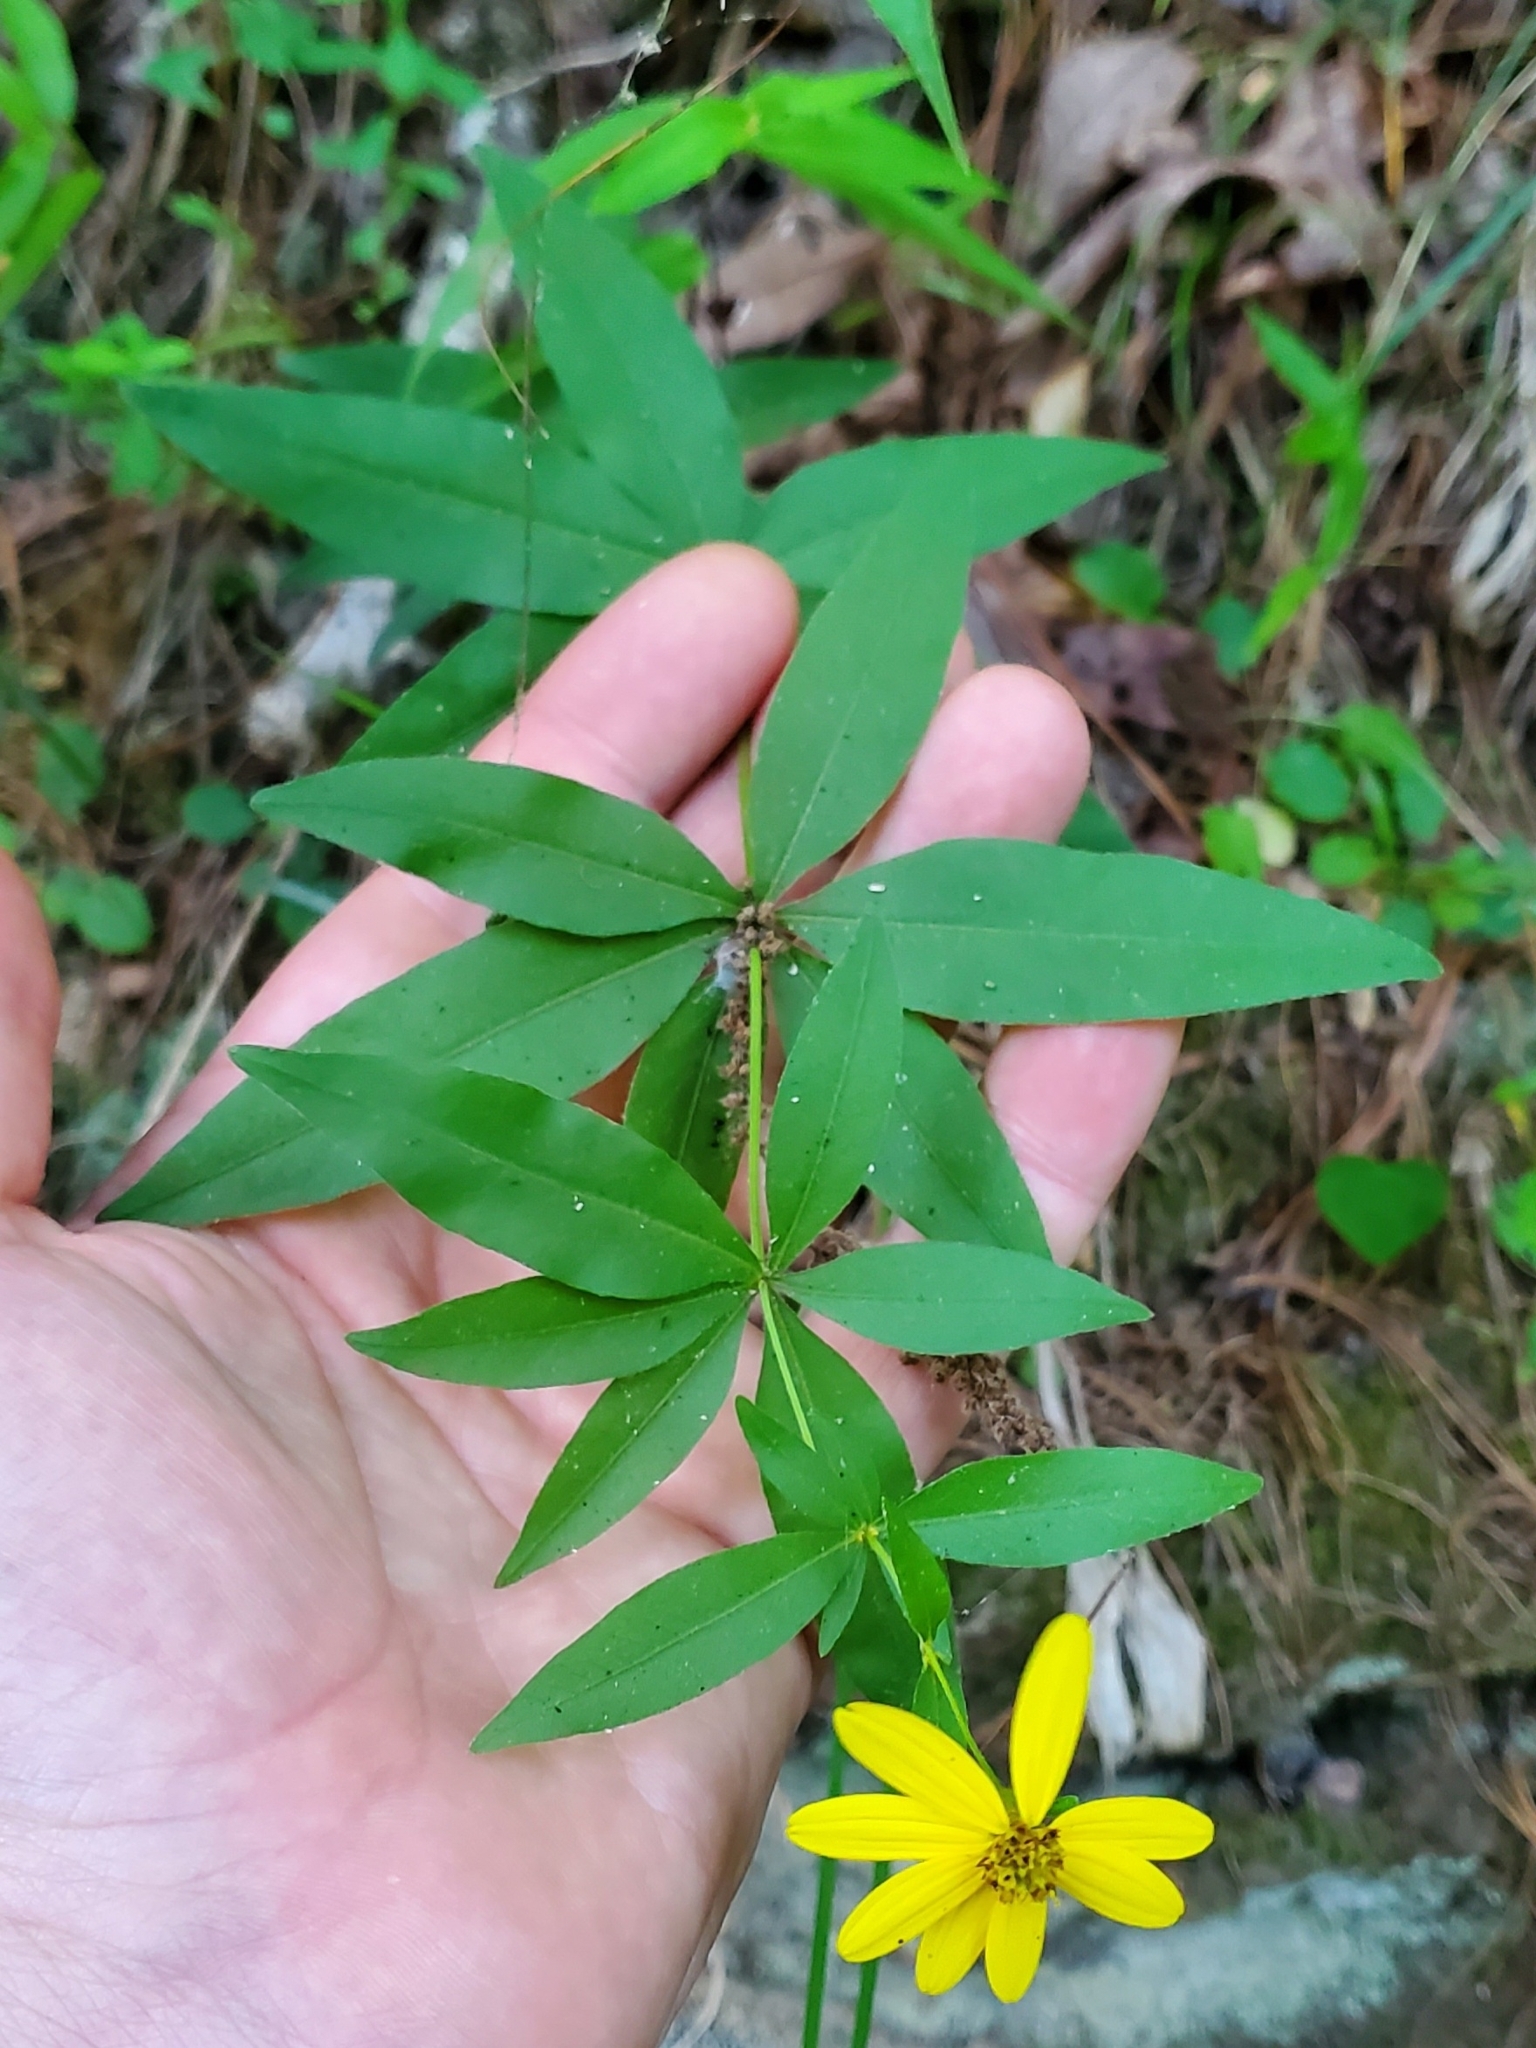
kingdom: Plantae
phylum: Tracheophyta
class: Magnoliopsida
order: Asterales
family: Asteraceae
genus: Coreopsis
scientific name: Coreopsis major
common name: Forest tickseed
